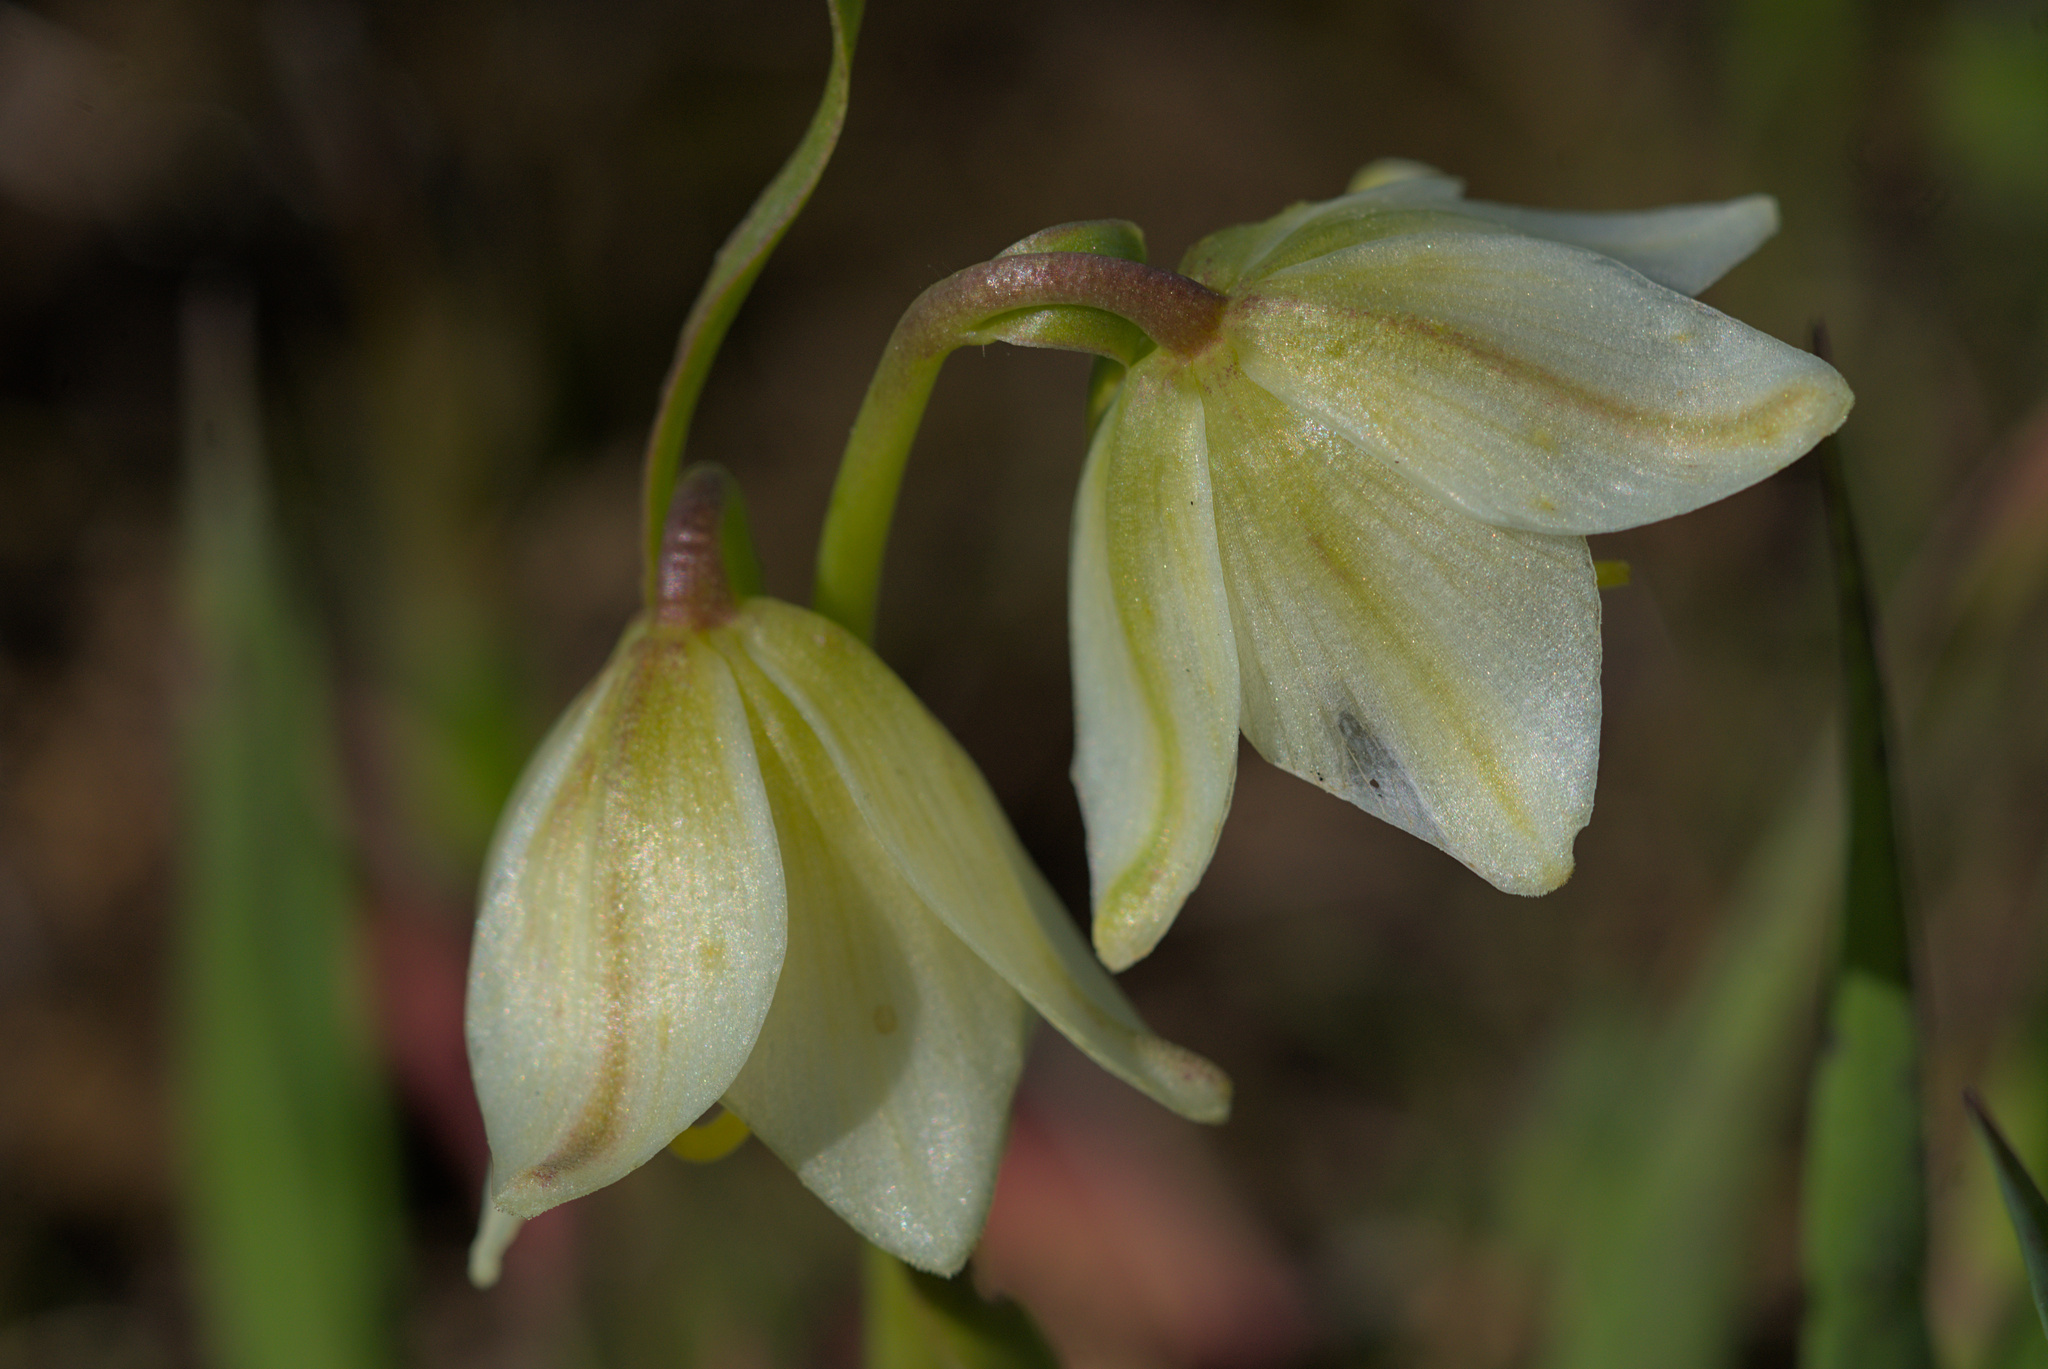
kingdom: Plantae
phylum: Tracheophyta
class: Liliopsida
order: Liliales
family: Liliaceae
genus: Fritillaria
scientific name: Fritillaria liliacea
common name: Fragrant fritillary
